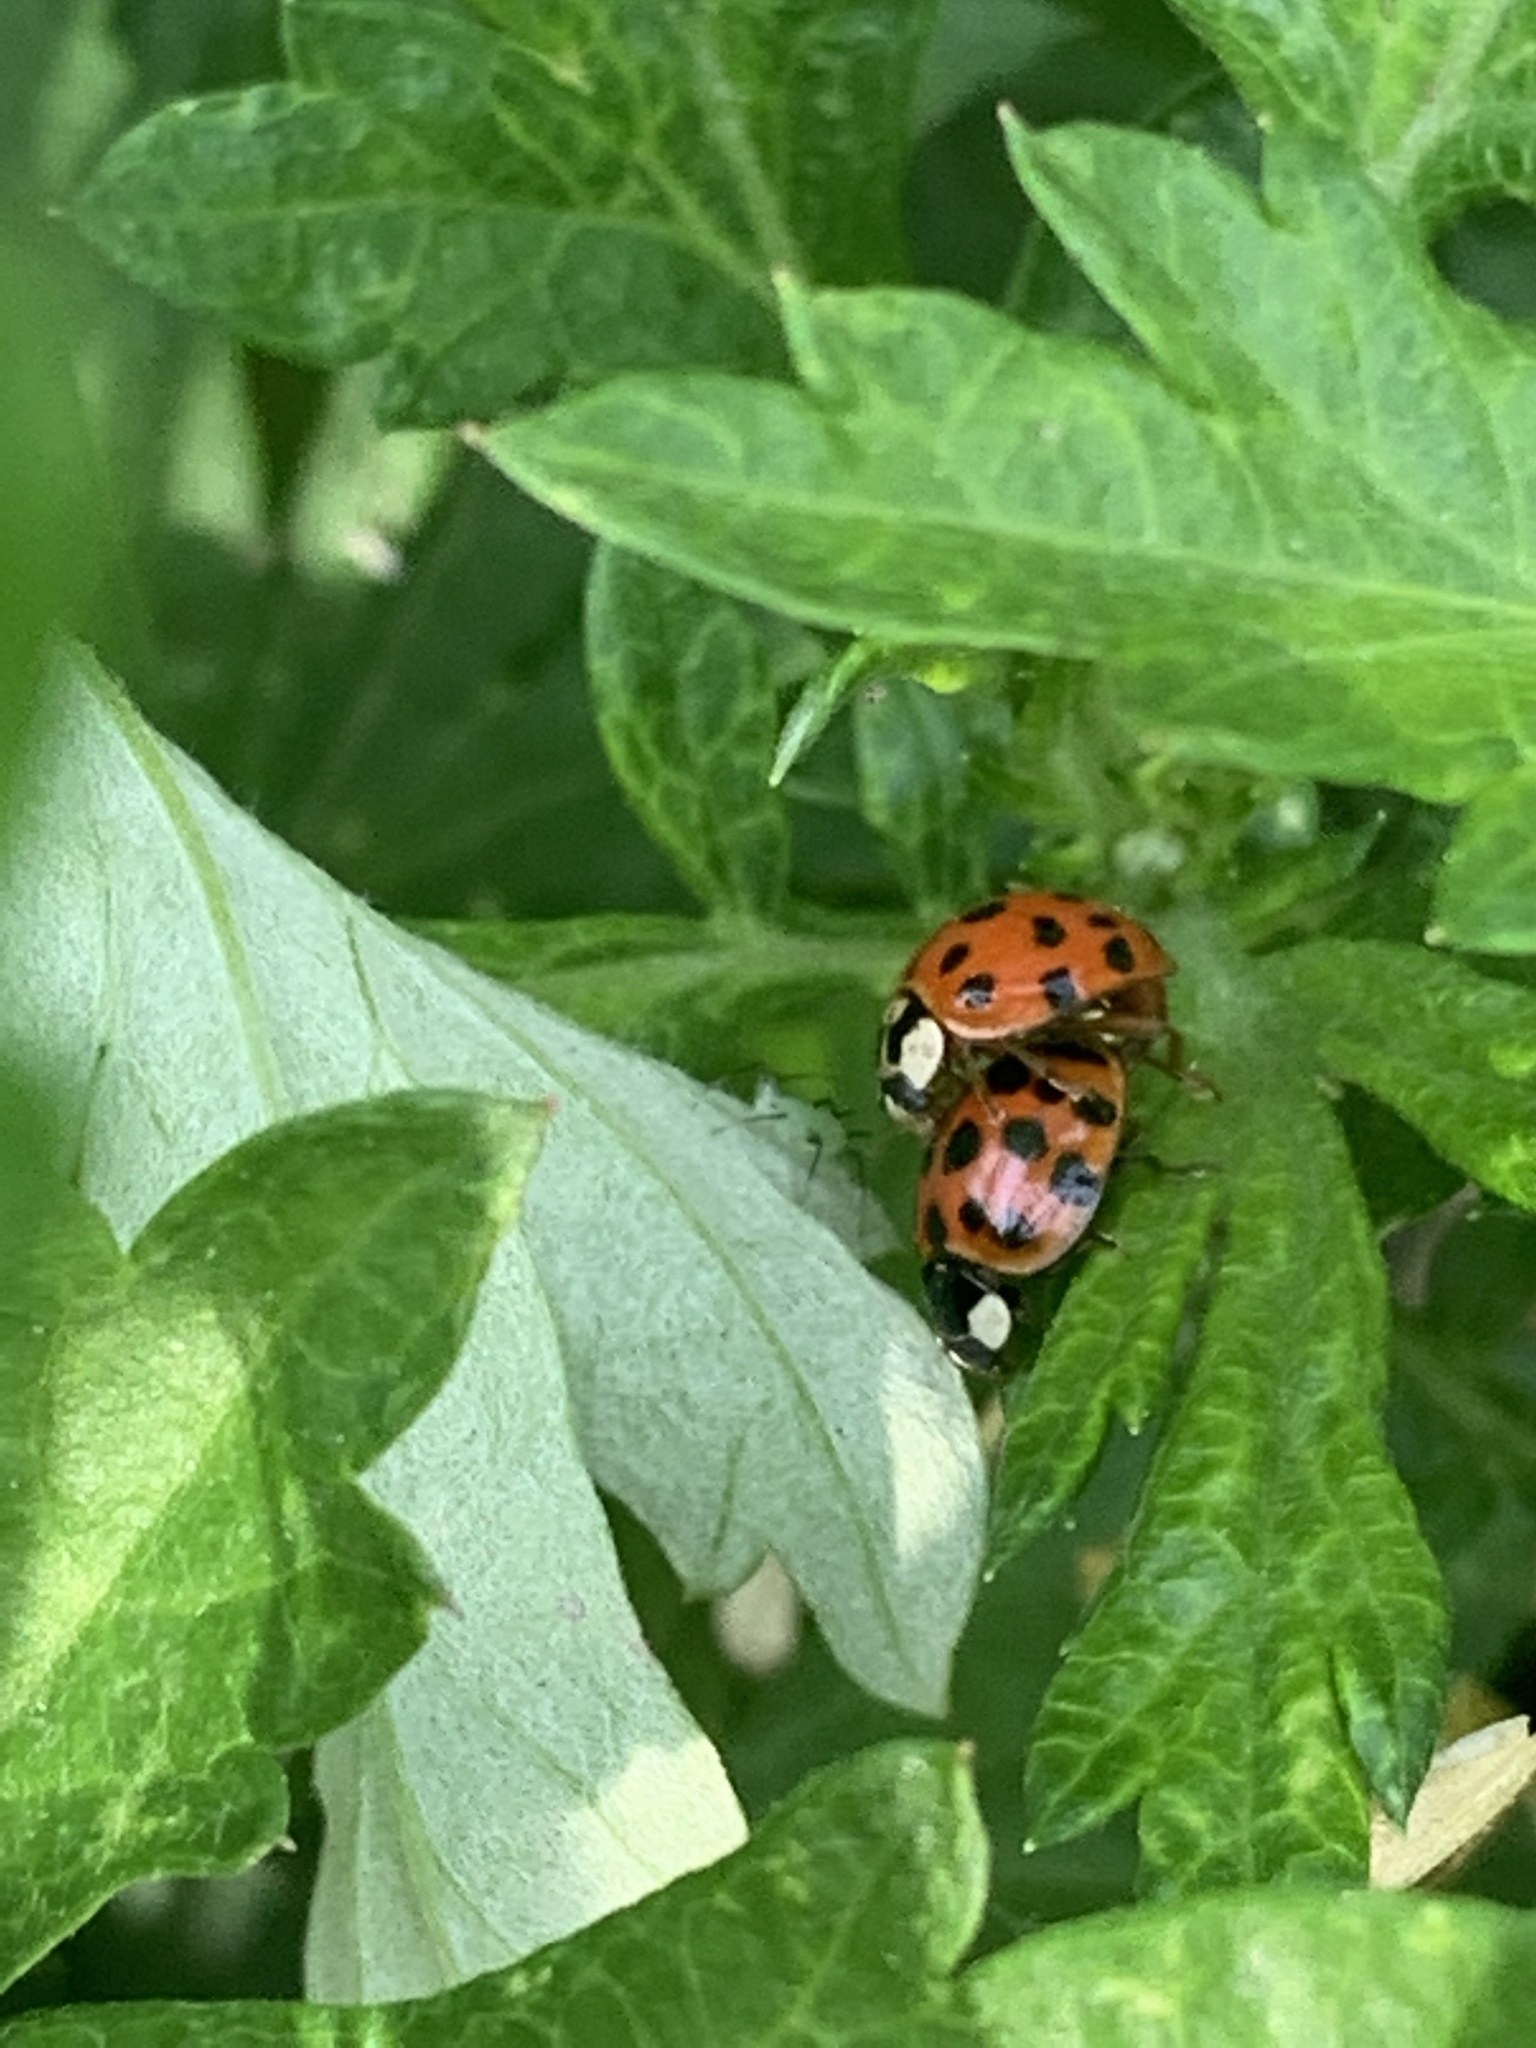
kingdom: Animalia
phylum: Arthropoda
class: Insecta
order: Coleoptera
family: Coccinellidae
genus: Harmonia
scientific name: Harmonia axyridis
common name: Harlequin ladybird
